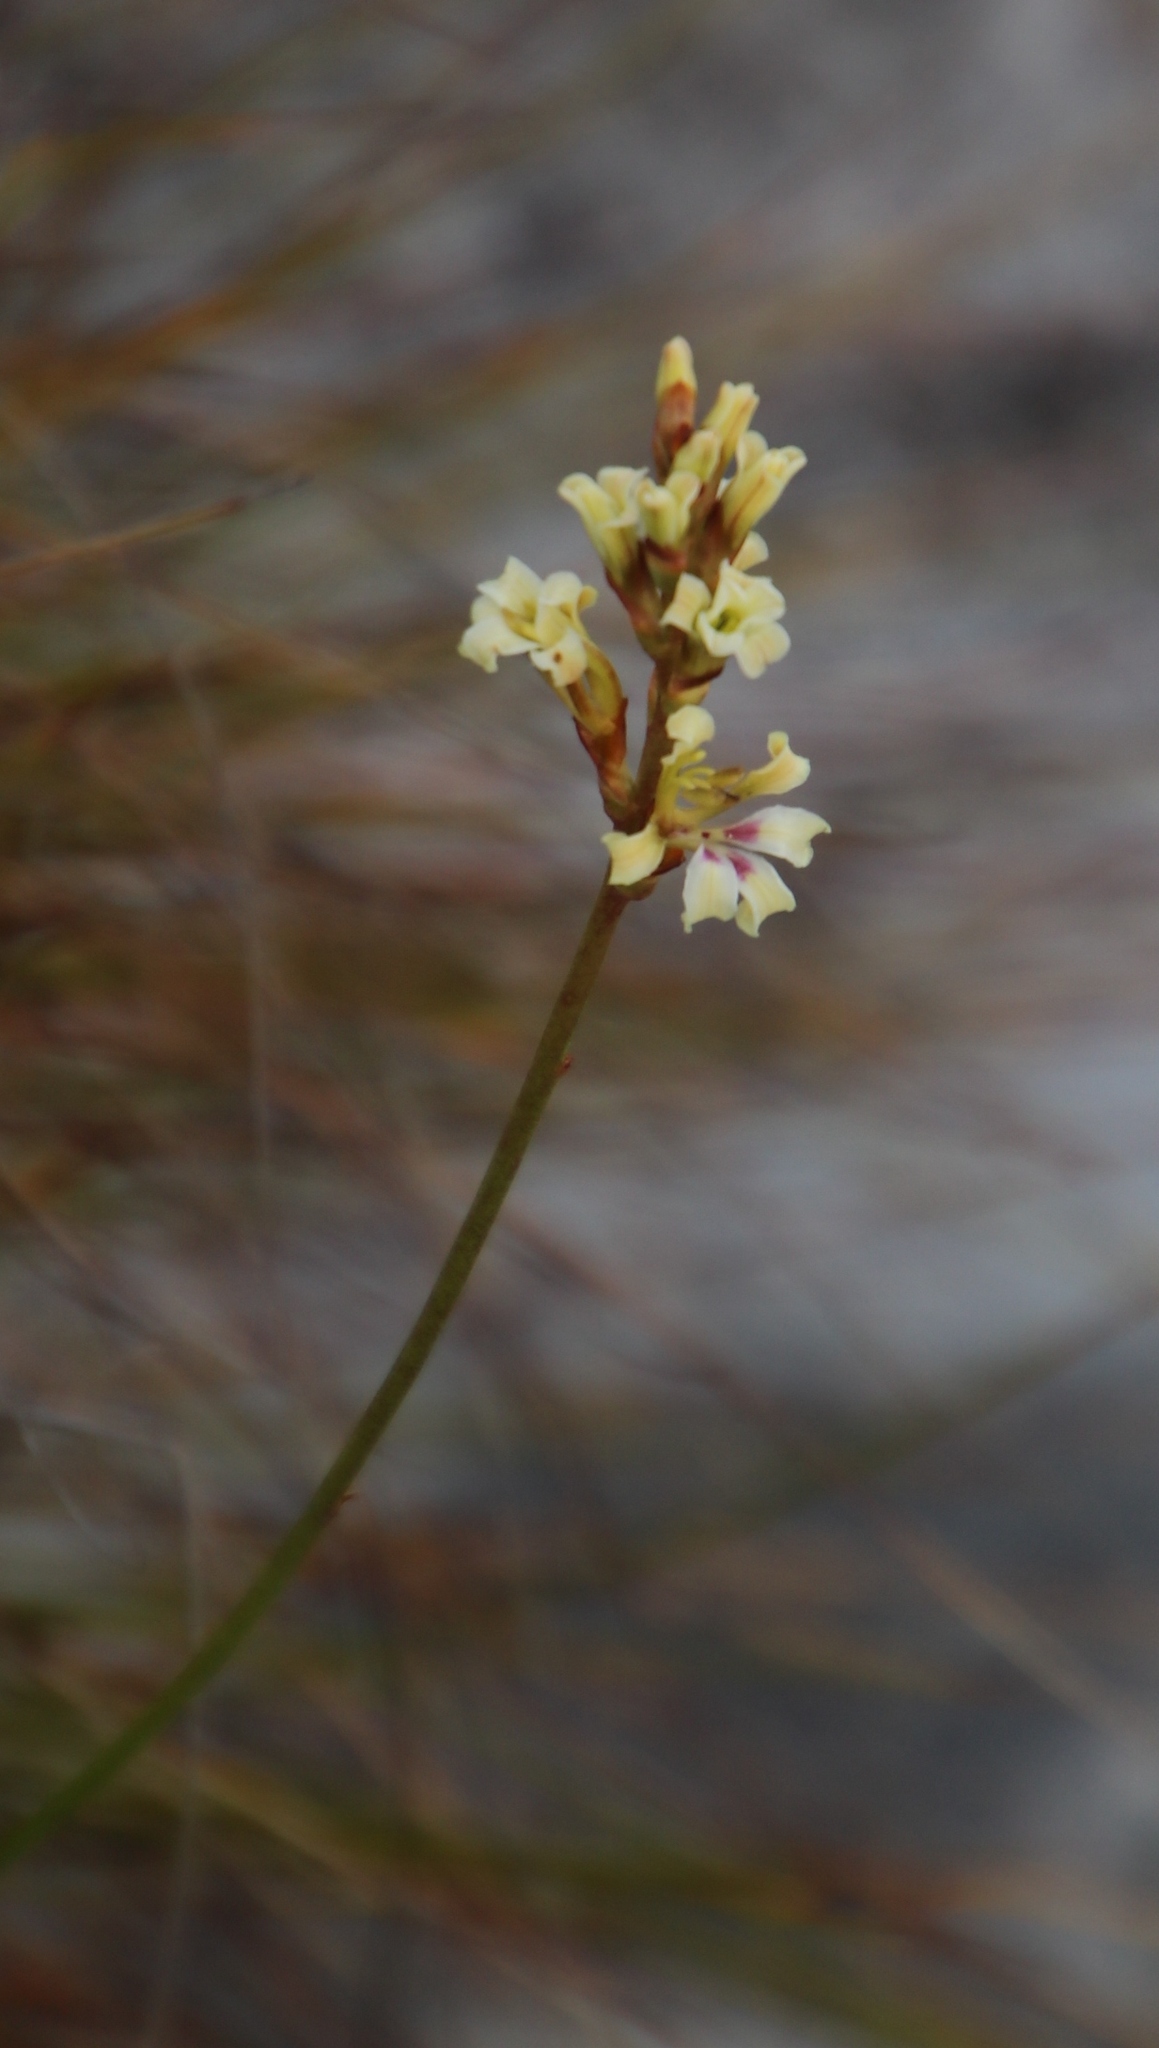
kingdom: Plantae
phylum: Tracheophyta
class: Liliopsida
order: Asparagales
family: Iridaceae
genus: Tritoniopsis
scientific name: Tritoniopsis unguicularis
